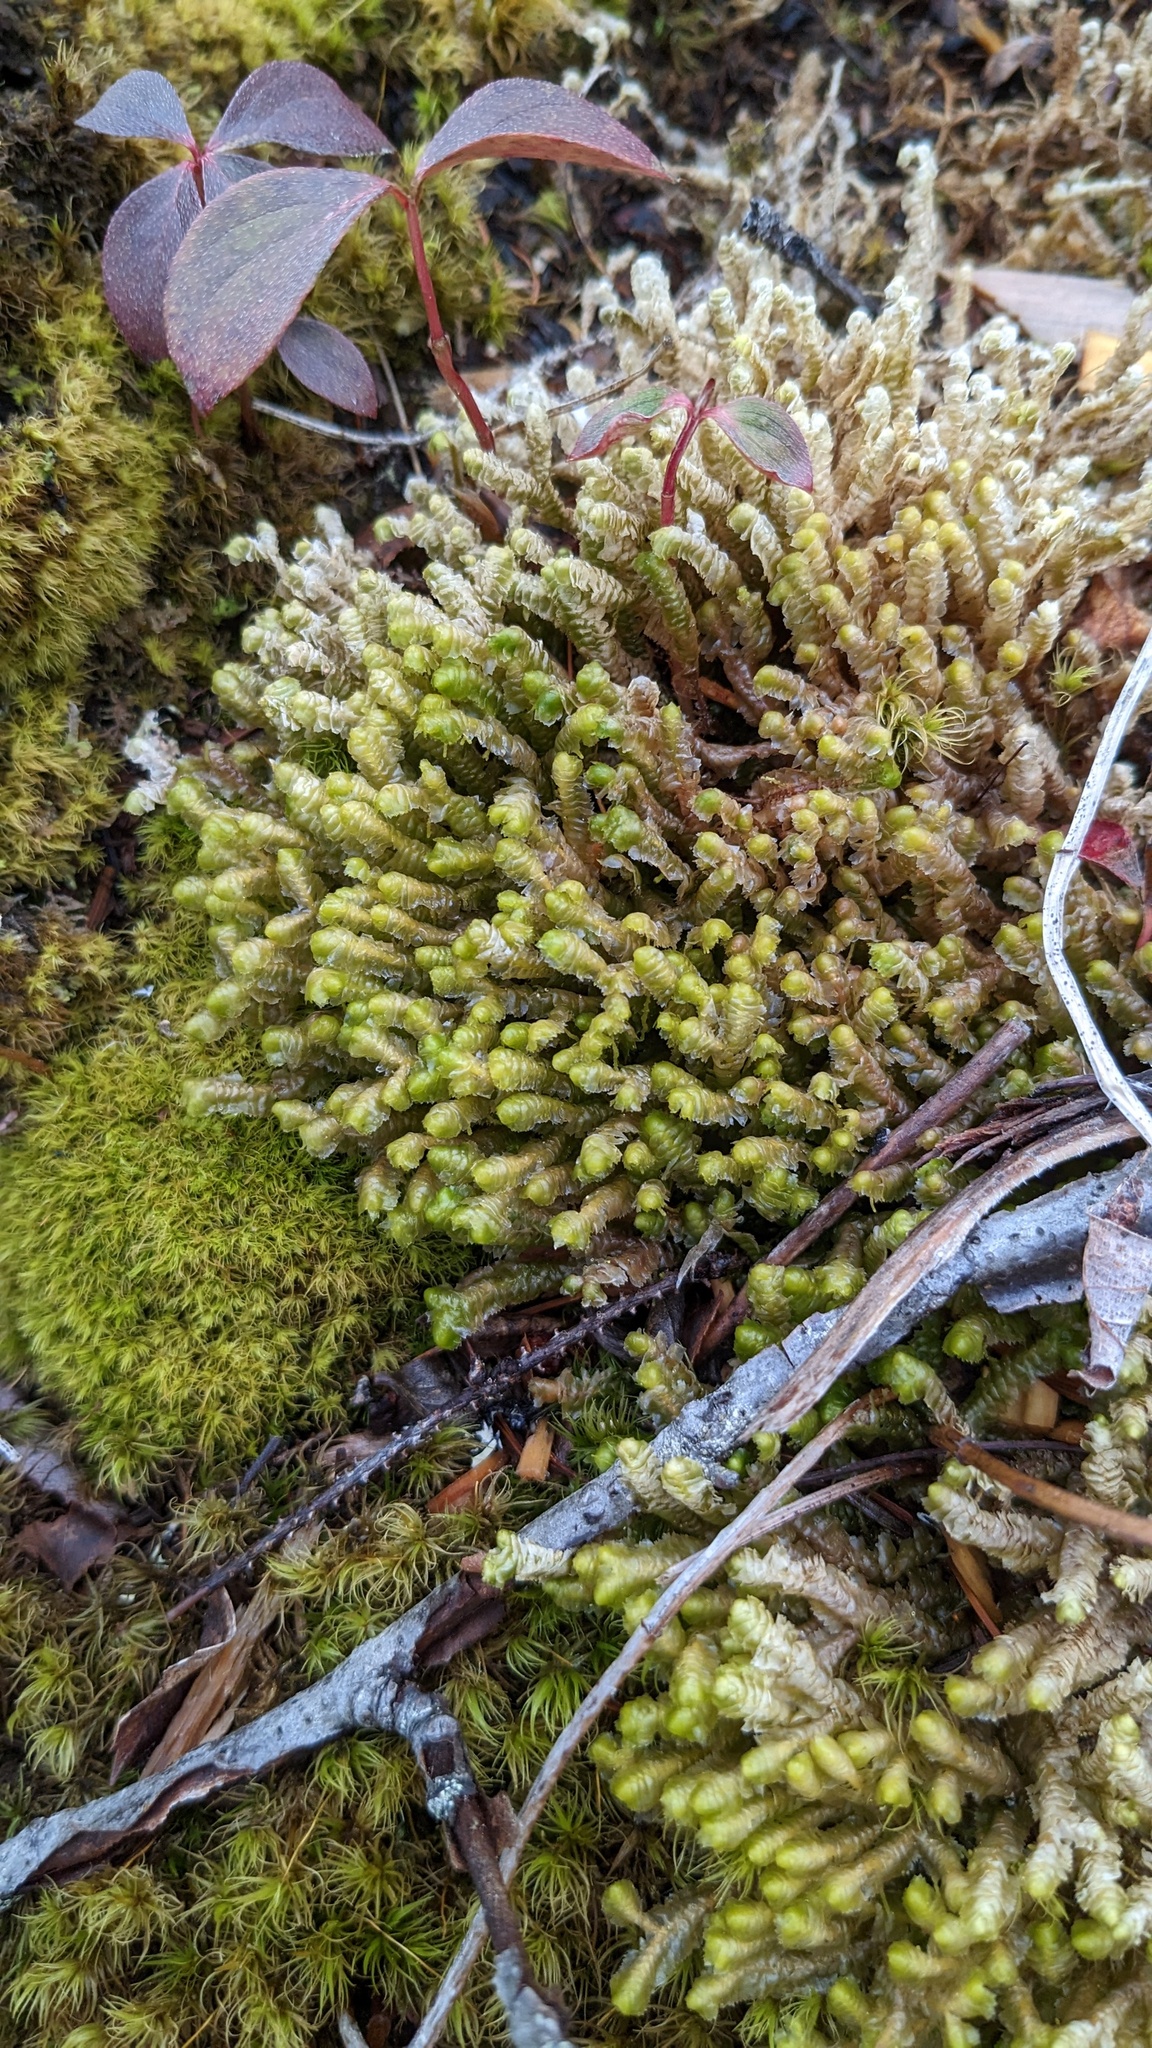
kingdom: Plantae
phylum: Marchantiophyta
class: Jungermanniopsida
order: Jungermanniales
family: Lepidoziaceae
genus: Bazzania
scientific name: Bazzania trilobata
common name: Three-lobed whipwort
